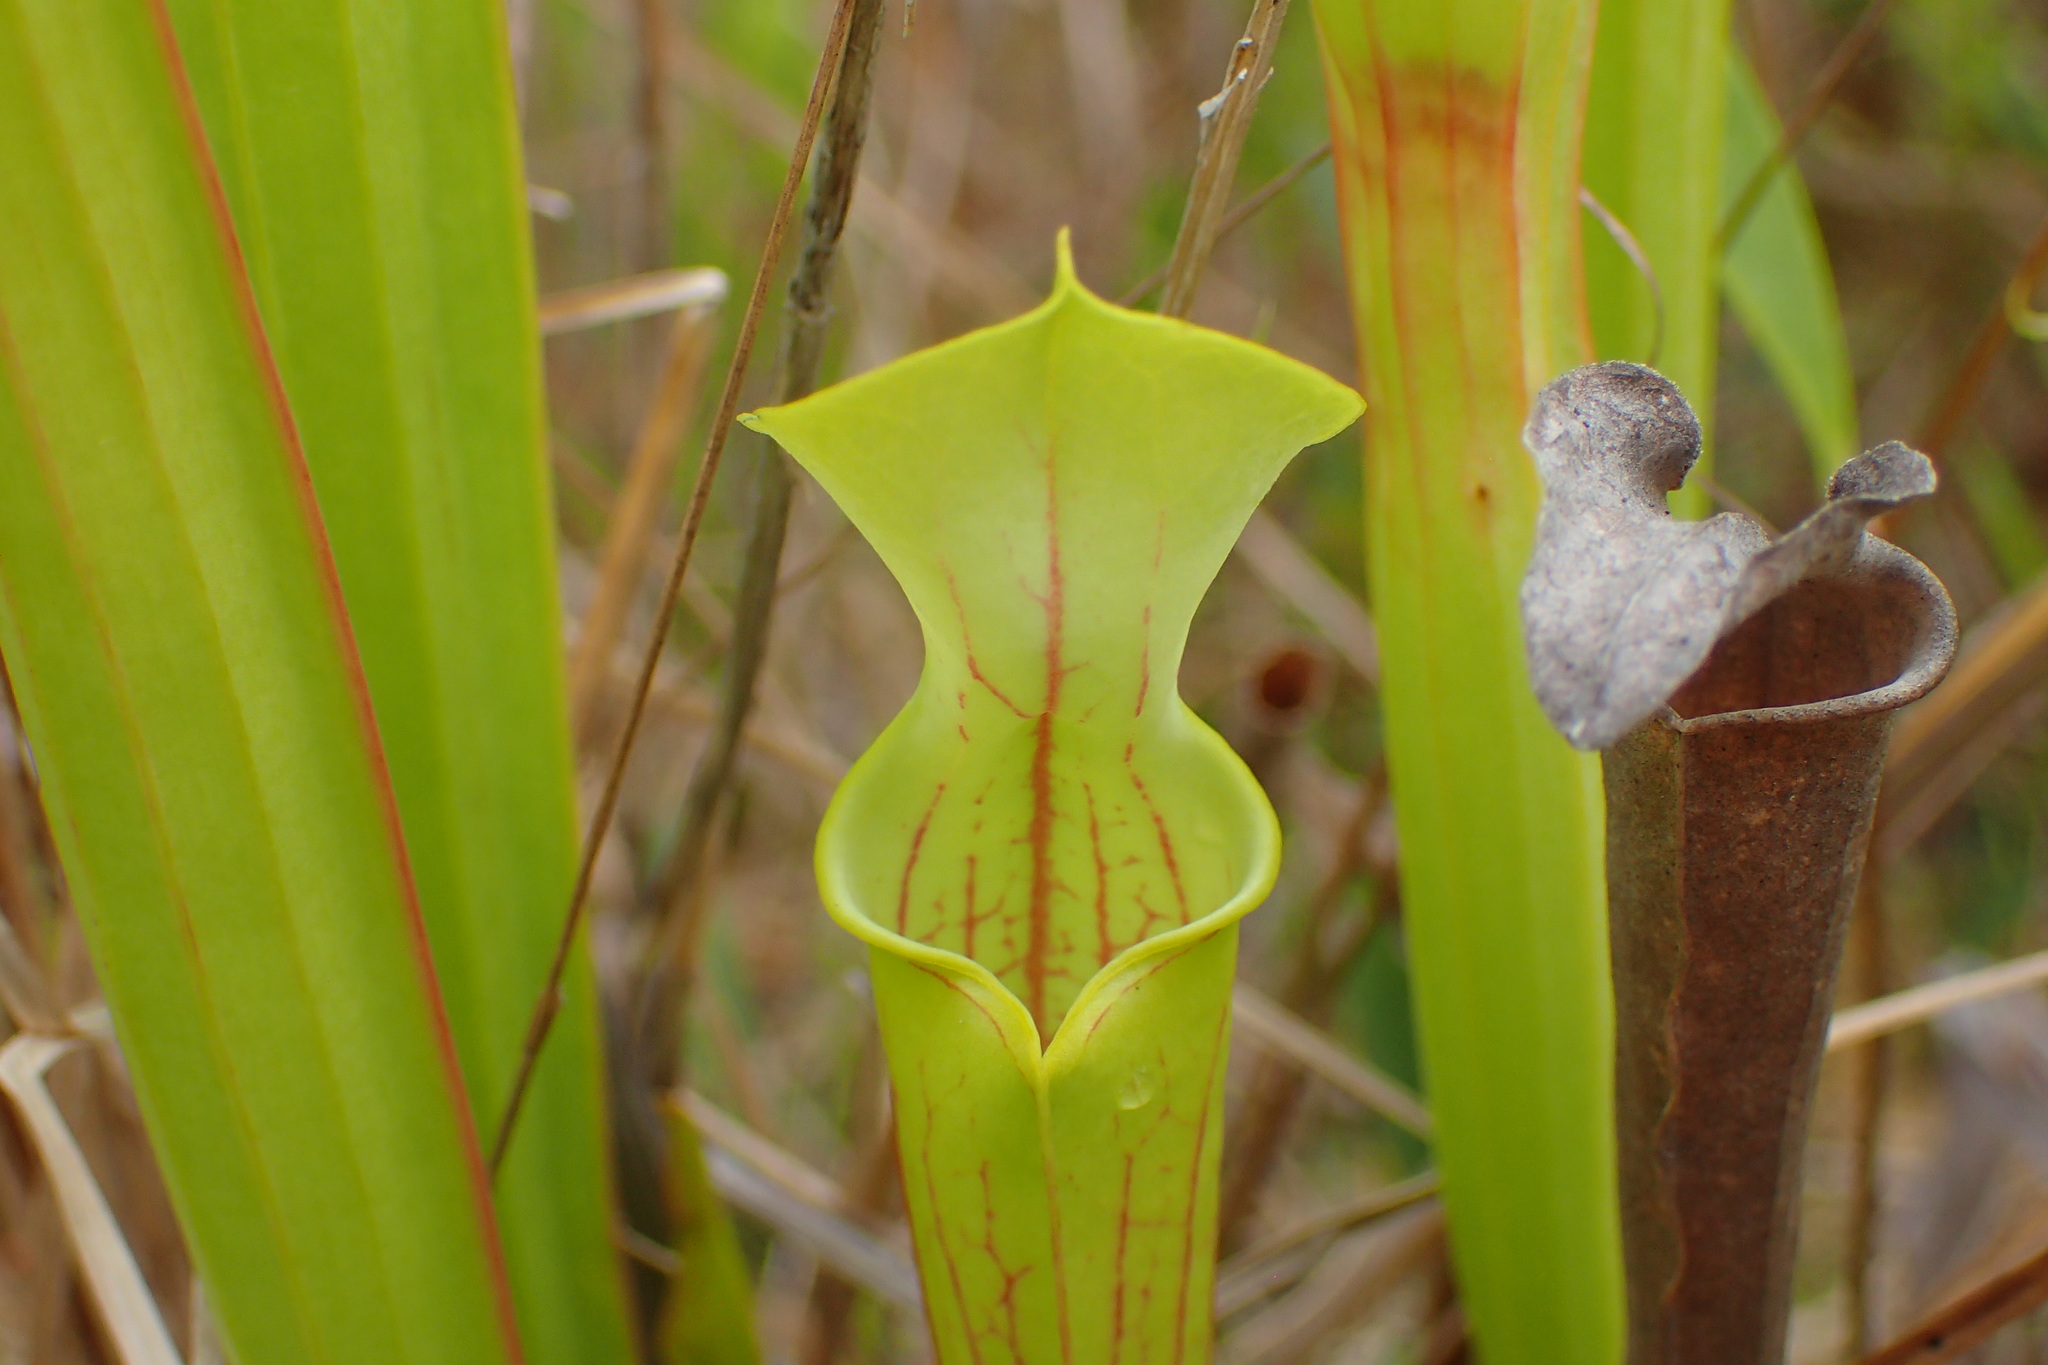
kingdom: Plantae
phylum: Tracheophyta
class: Magnoliopsida
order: Ericales
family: Sarraceniaceae
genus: Sarracenia
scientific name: Sarracenia flava
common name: Trumpets
